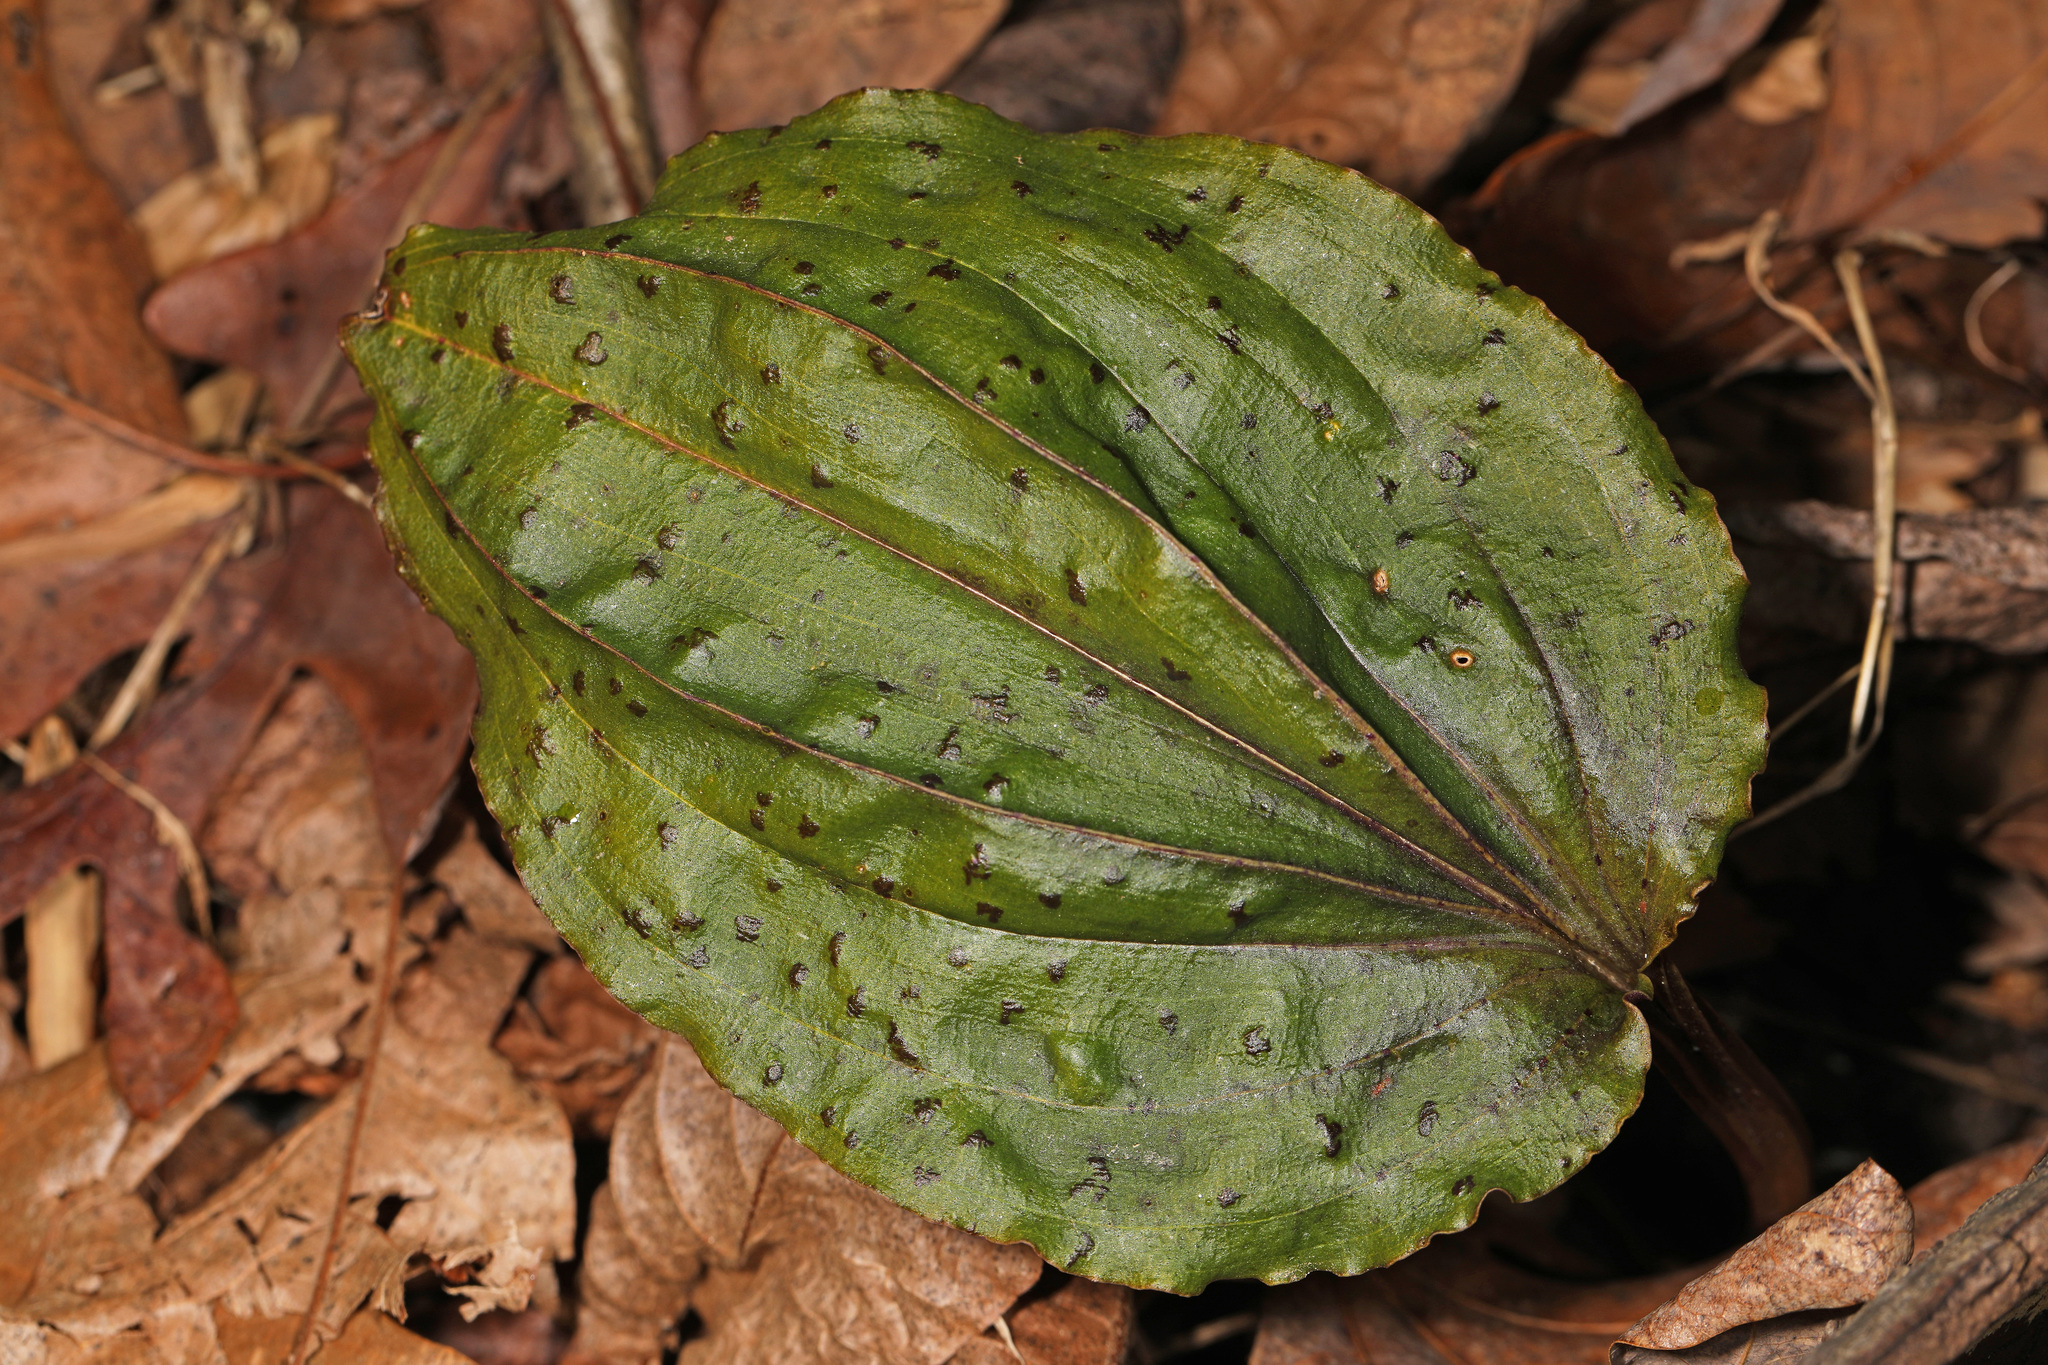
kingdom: Plantae
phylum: Tracheophyta
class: Liliopsida
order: Asparagales
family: Orchidaceae
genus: Tipularia
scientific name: Tipularia discolor
